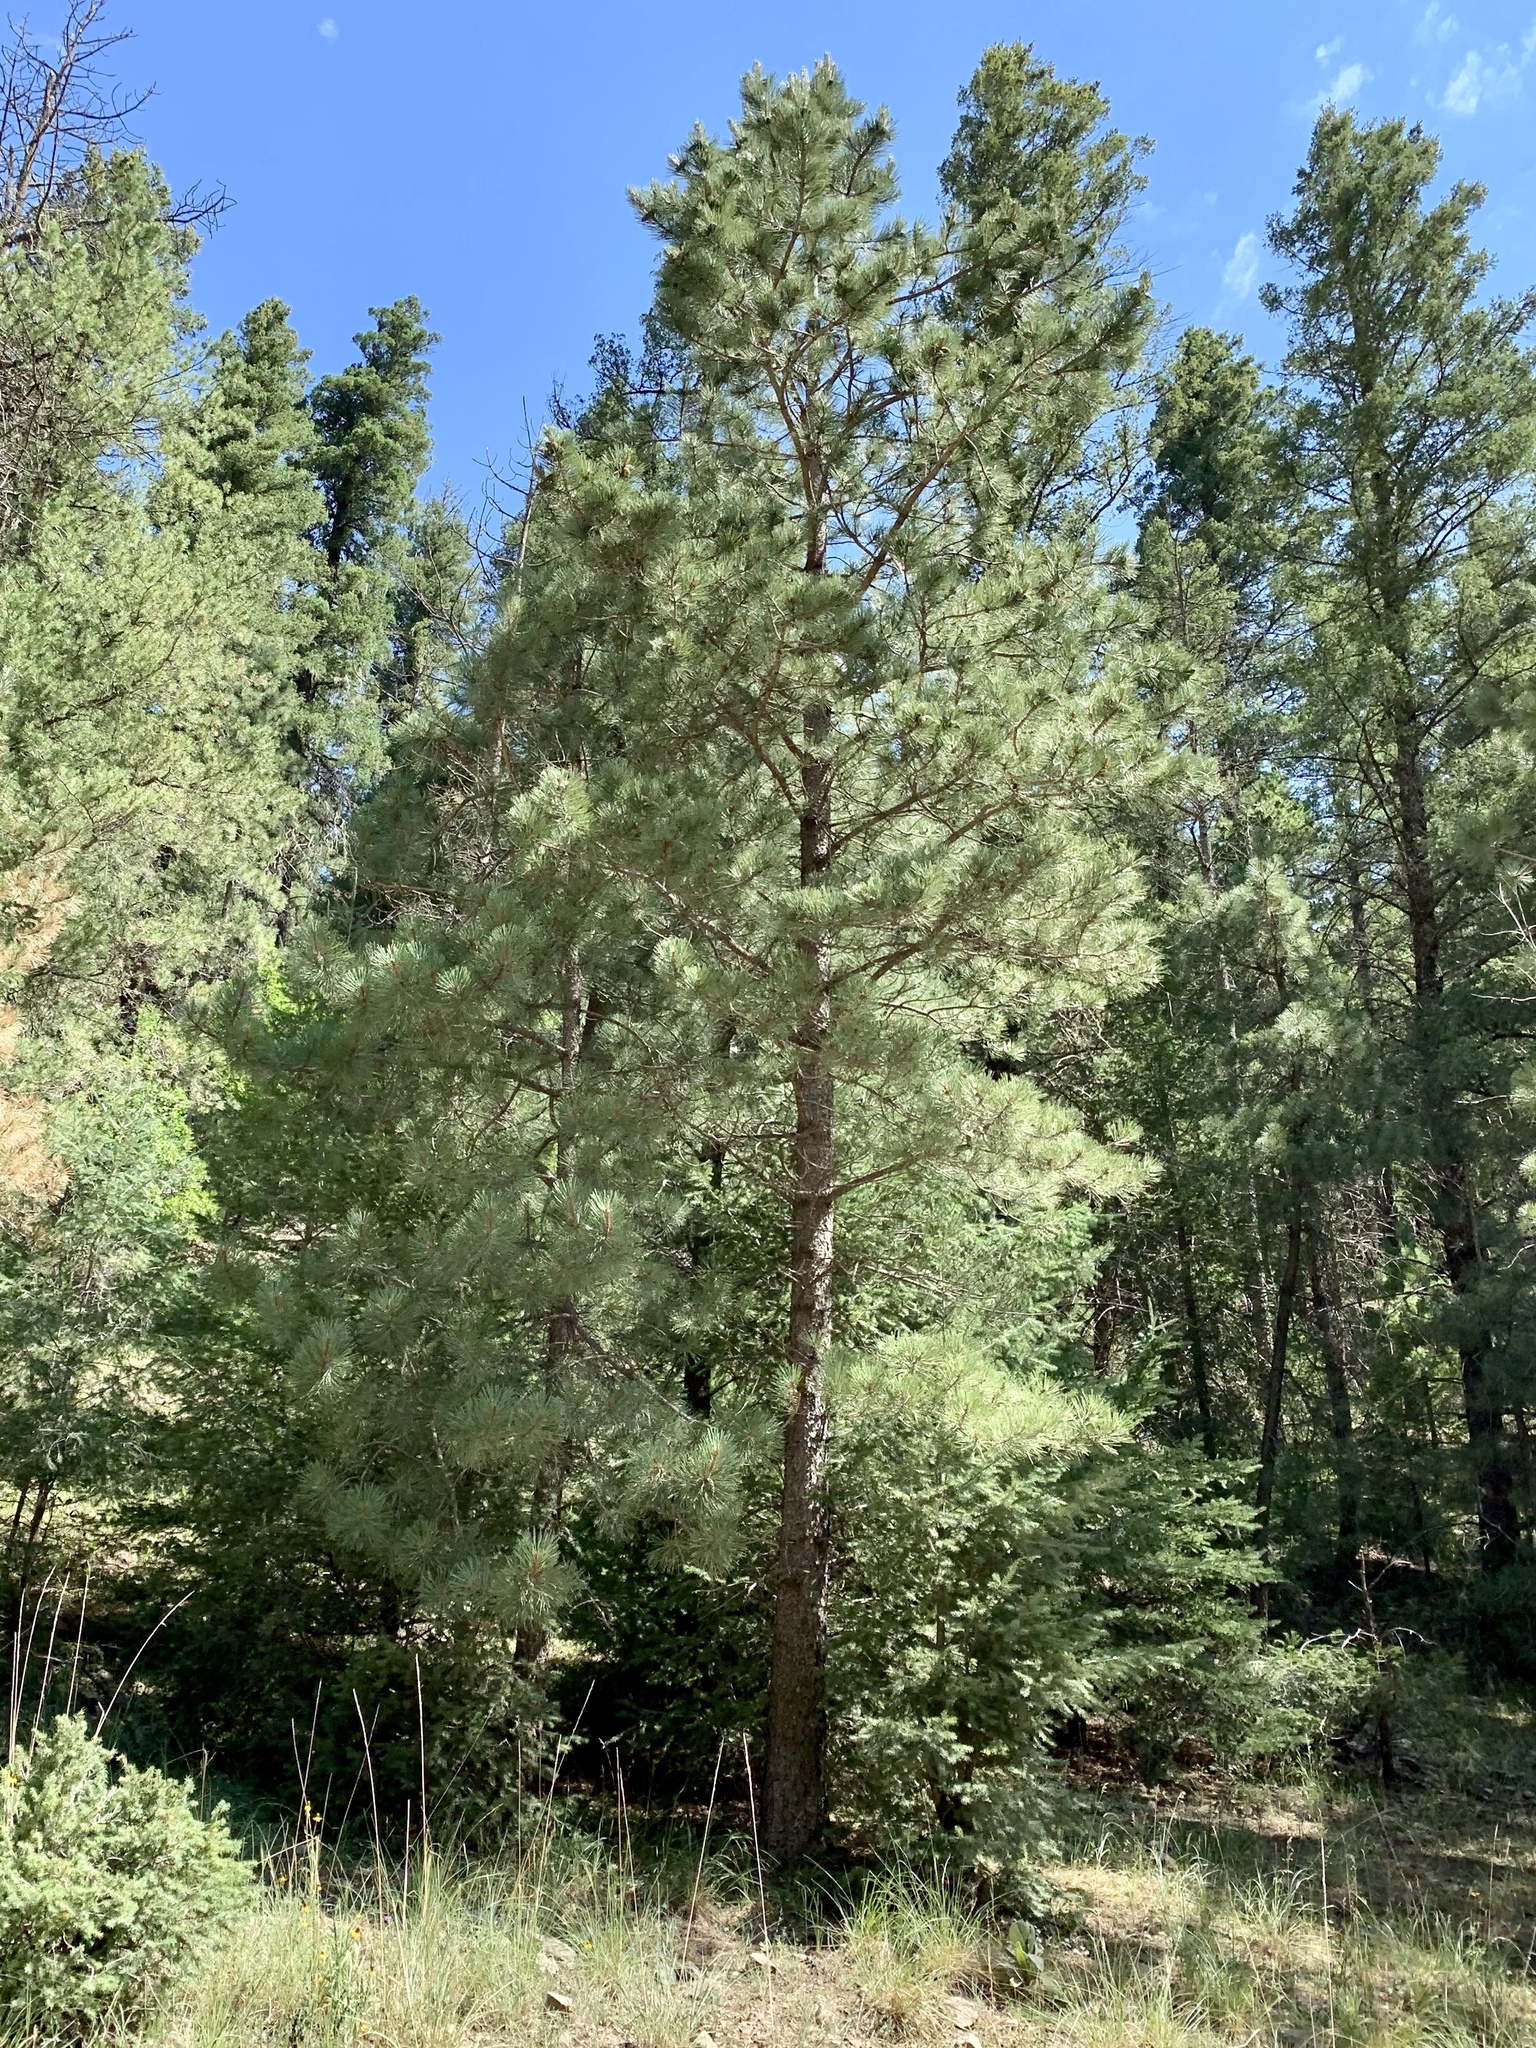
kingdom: Plantae
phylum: Tracheophyta
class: Pinopsida
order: Pinales
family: Pinaceae
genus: Pinus
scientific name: Pinus ponderosa
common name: Western yellow-pine
